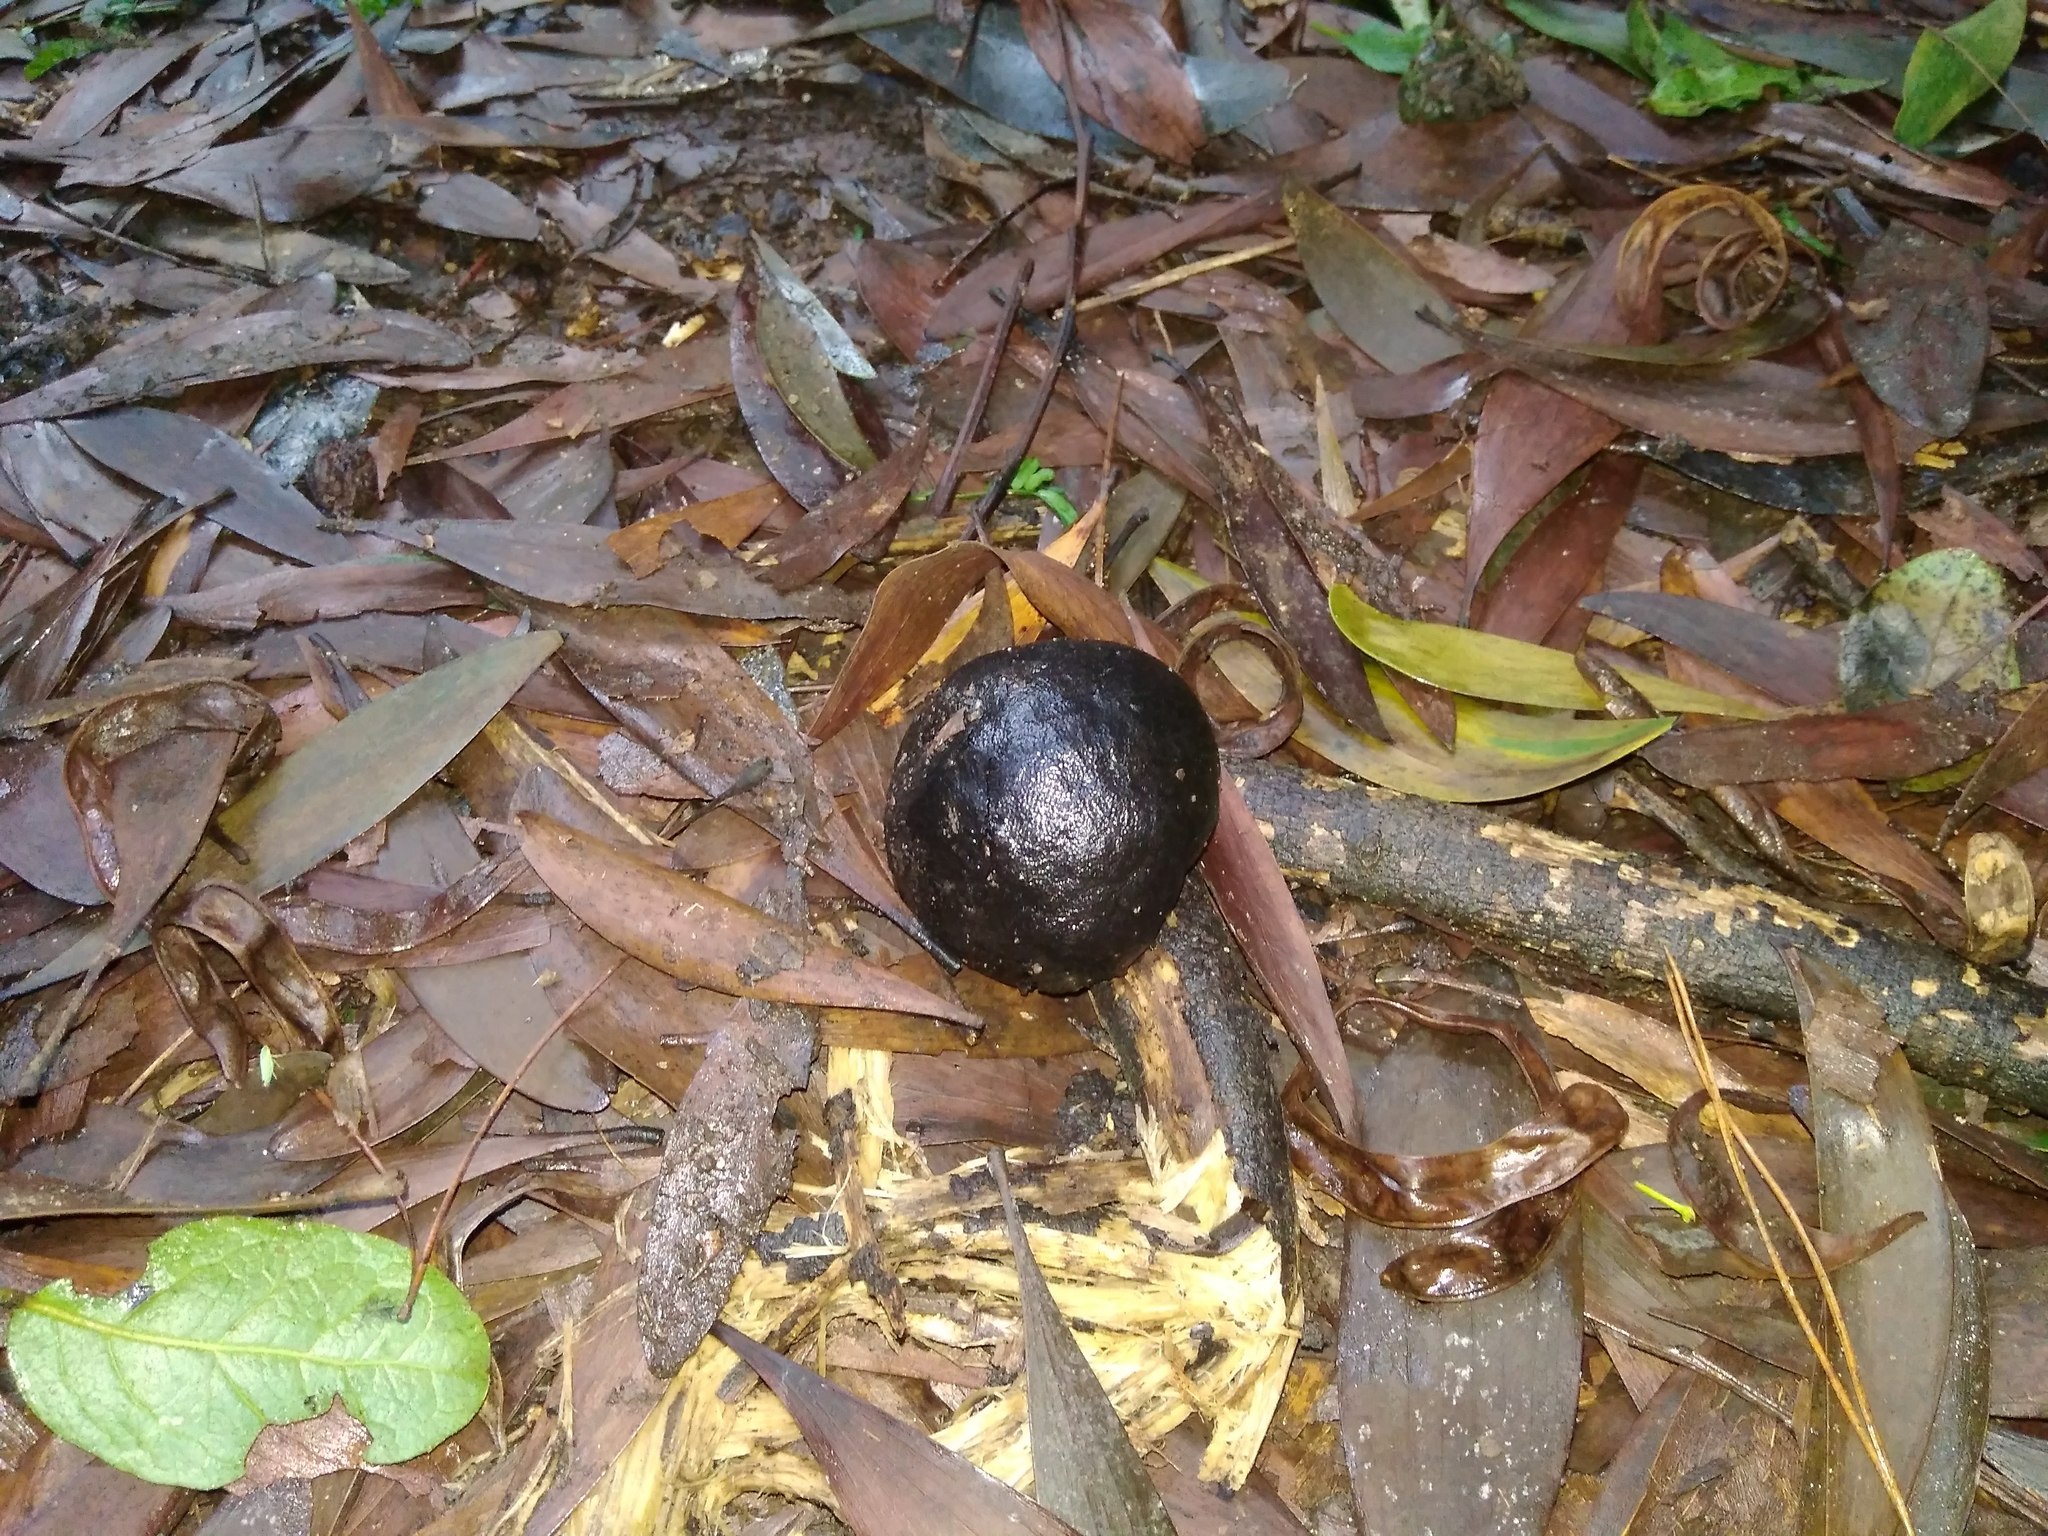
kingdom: Fungi
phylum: Ascomycota
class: Sordariomycetes
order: Xylariales
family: Hypoxylaceae
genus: Daldinia
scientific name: Daldinia concentrica
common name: Cramp balls
